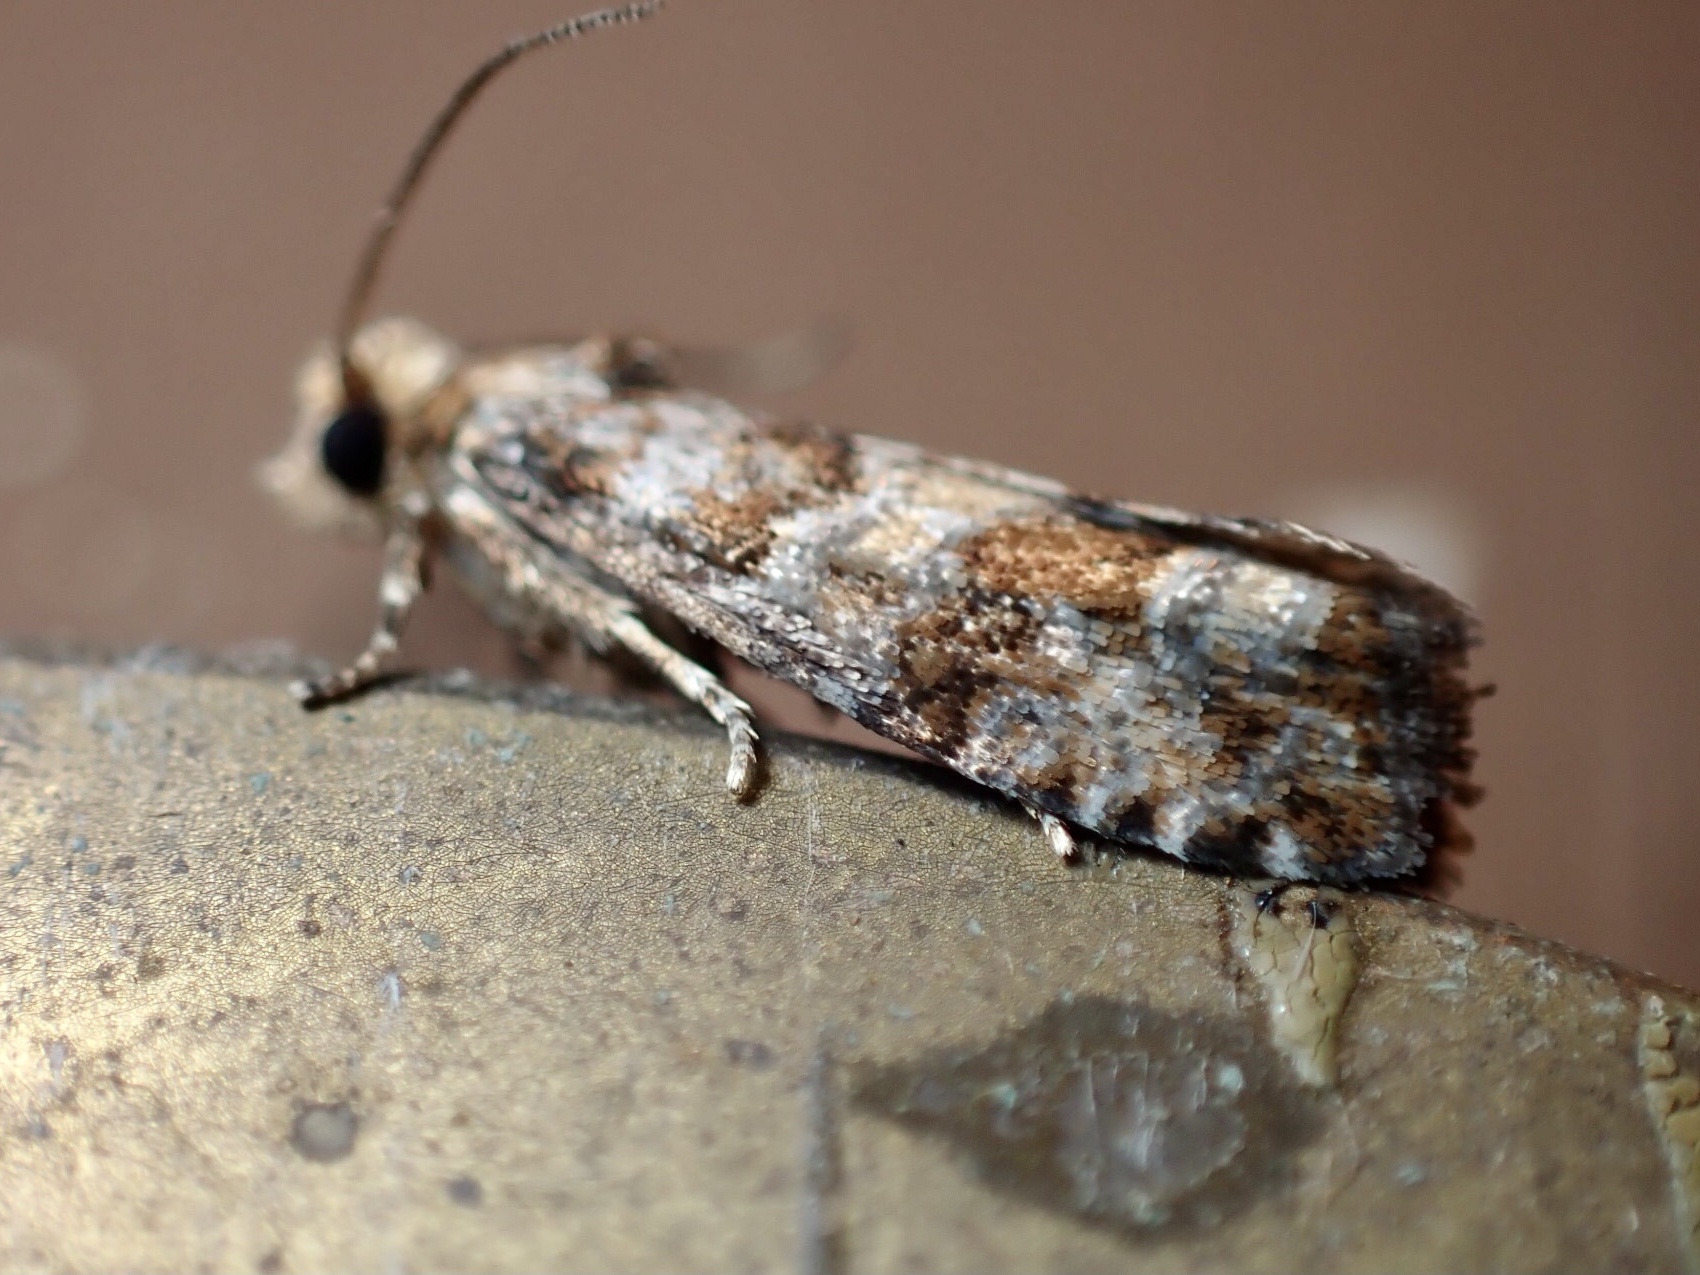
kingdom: Animalia
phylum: Arthropoda
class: Insecta
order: Lepidoptera
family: Tortricidae
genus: Eucopina
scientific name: Eucopina tocullionana
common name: White pinecone borer moth
